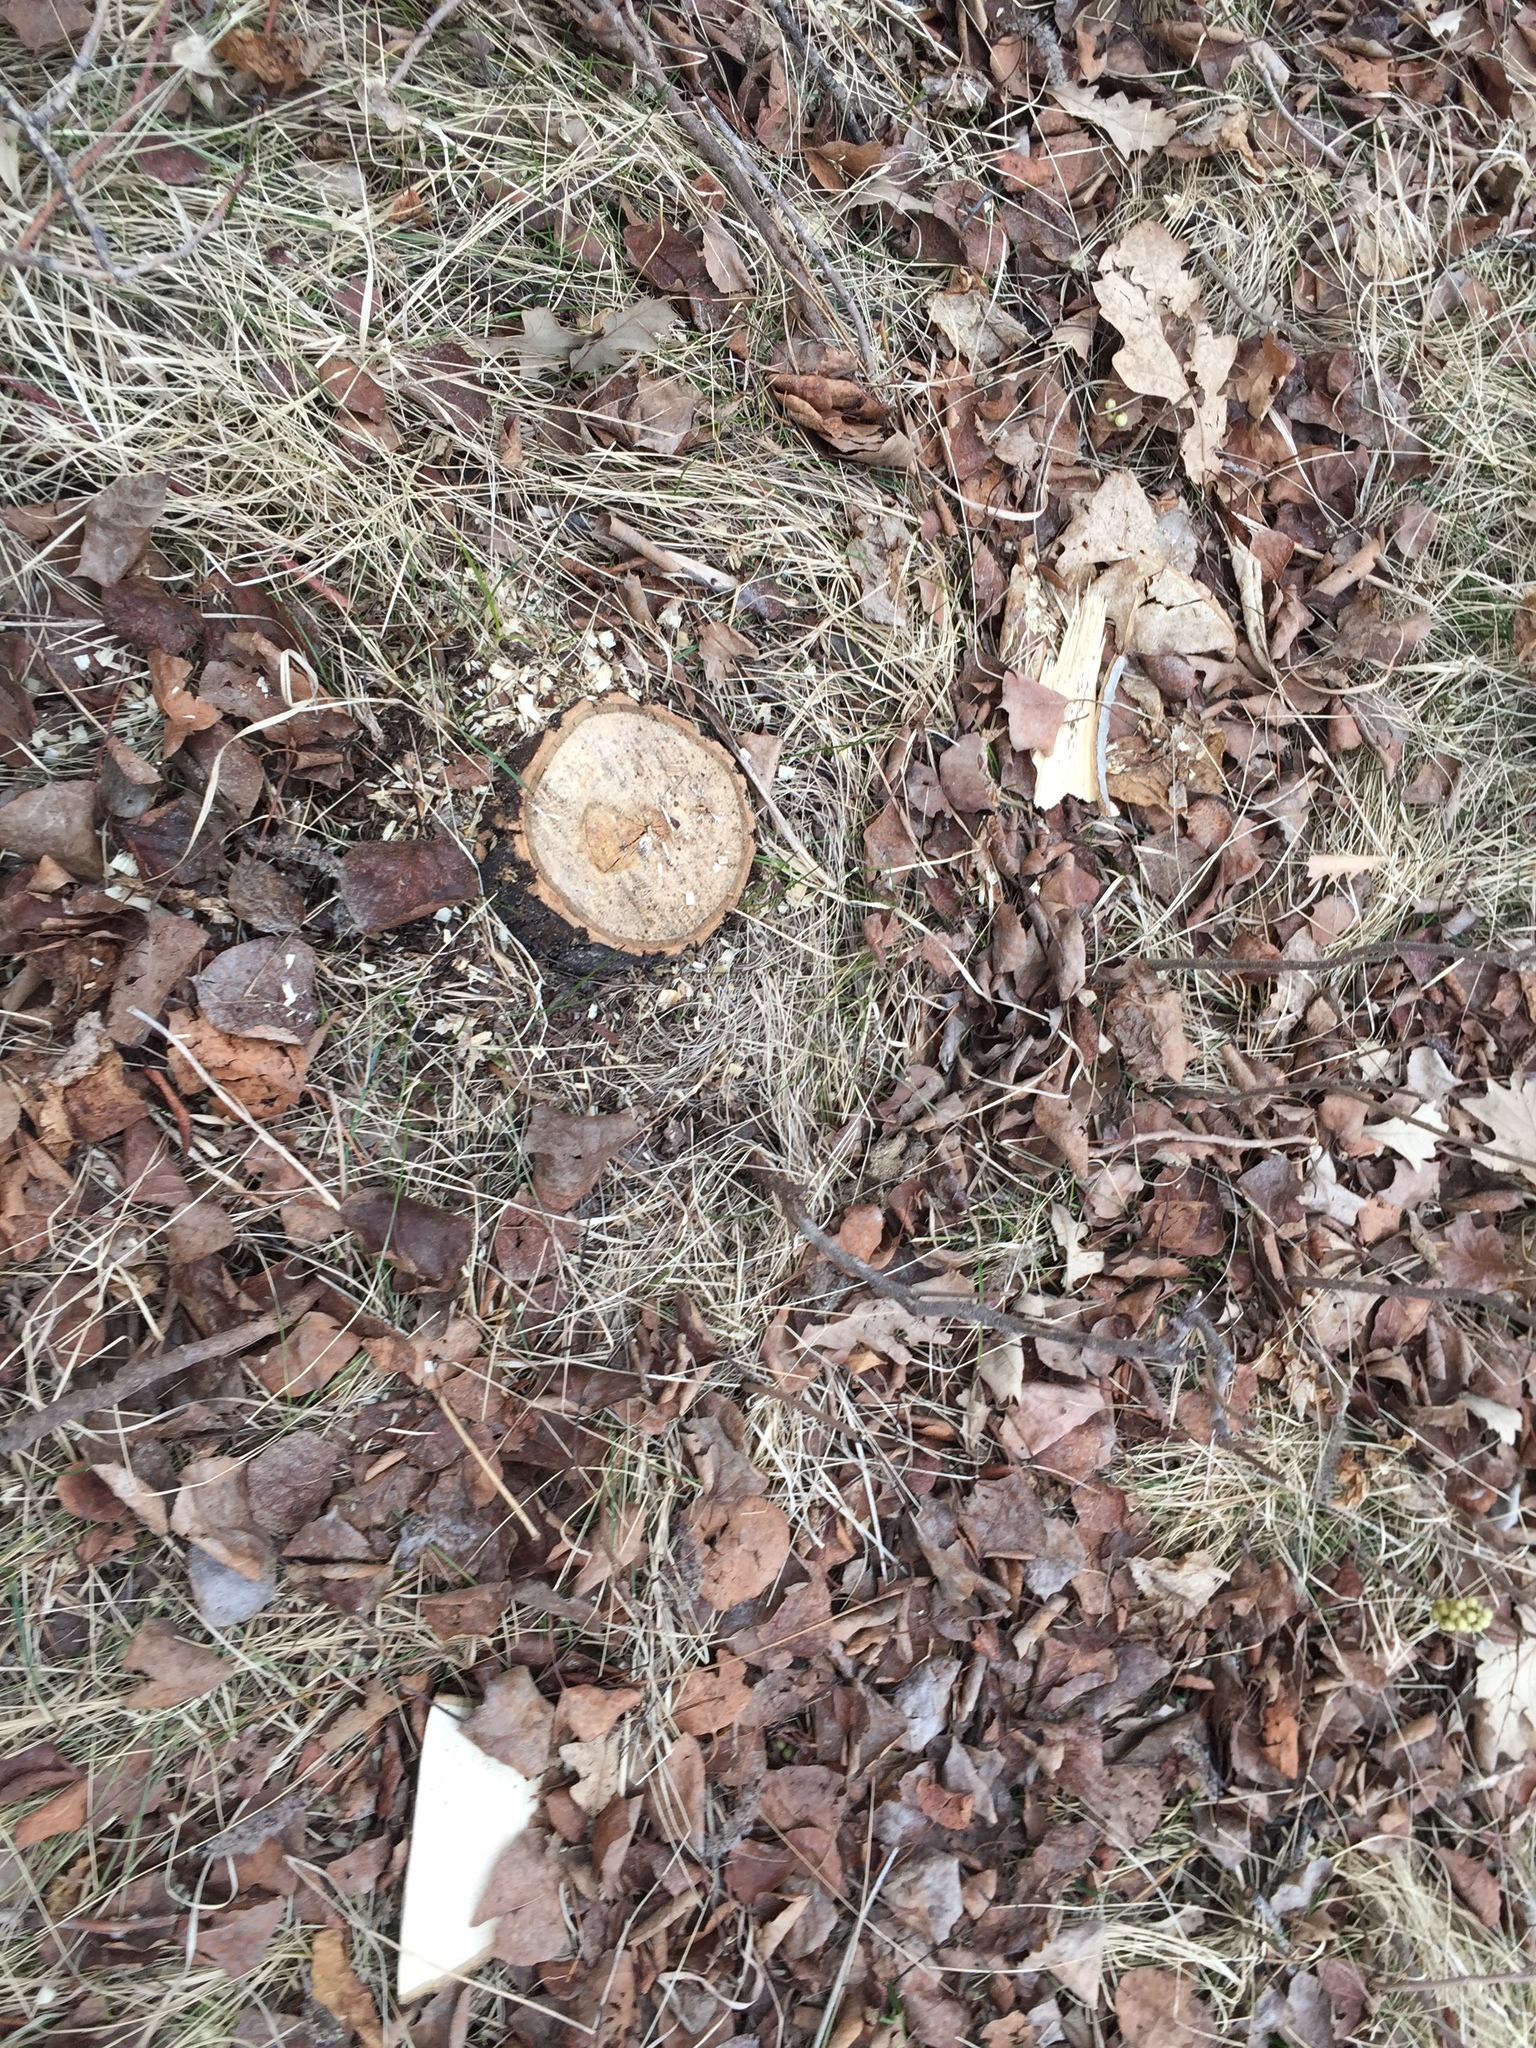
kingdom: Plantae
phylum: Tracheophyta
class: Magnoliopsida
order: Fagales
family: Fagaceae
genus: Quercus
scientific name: Quercus macrocarpa
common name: Bur oak
